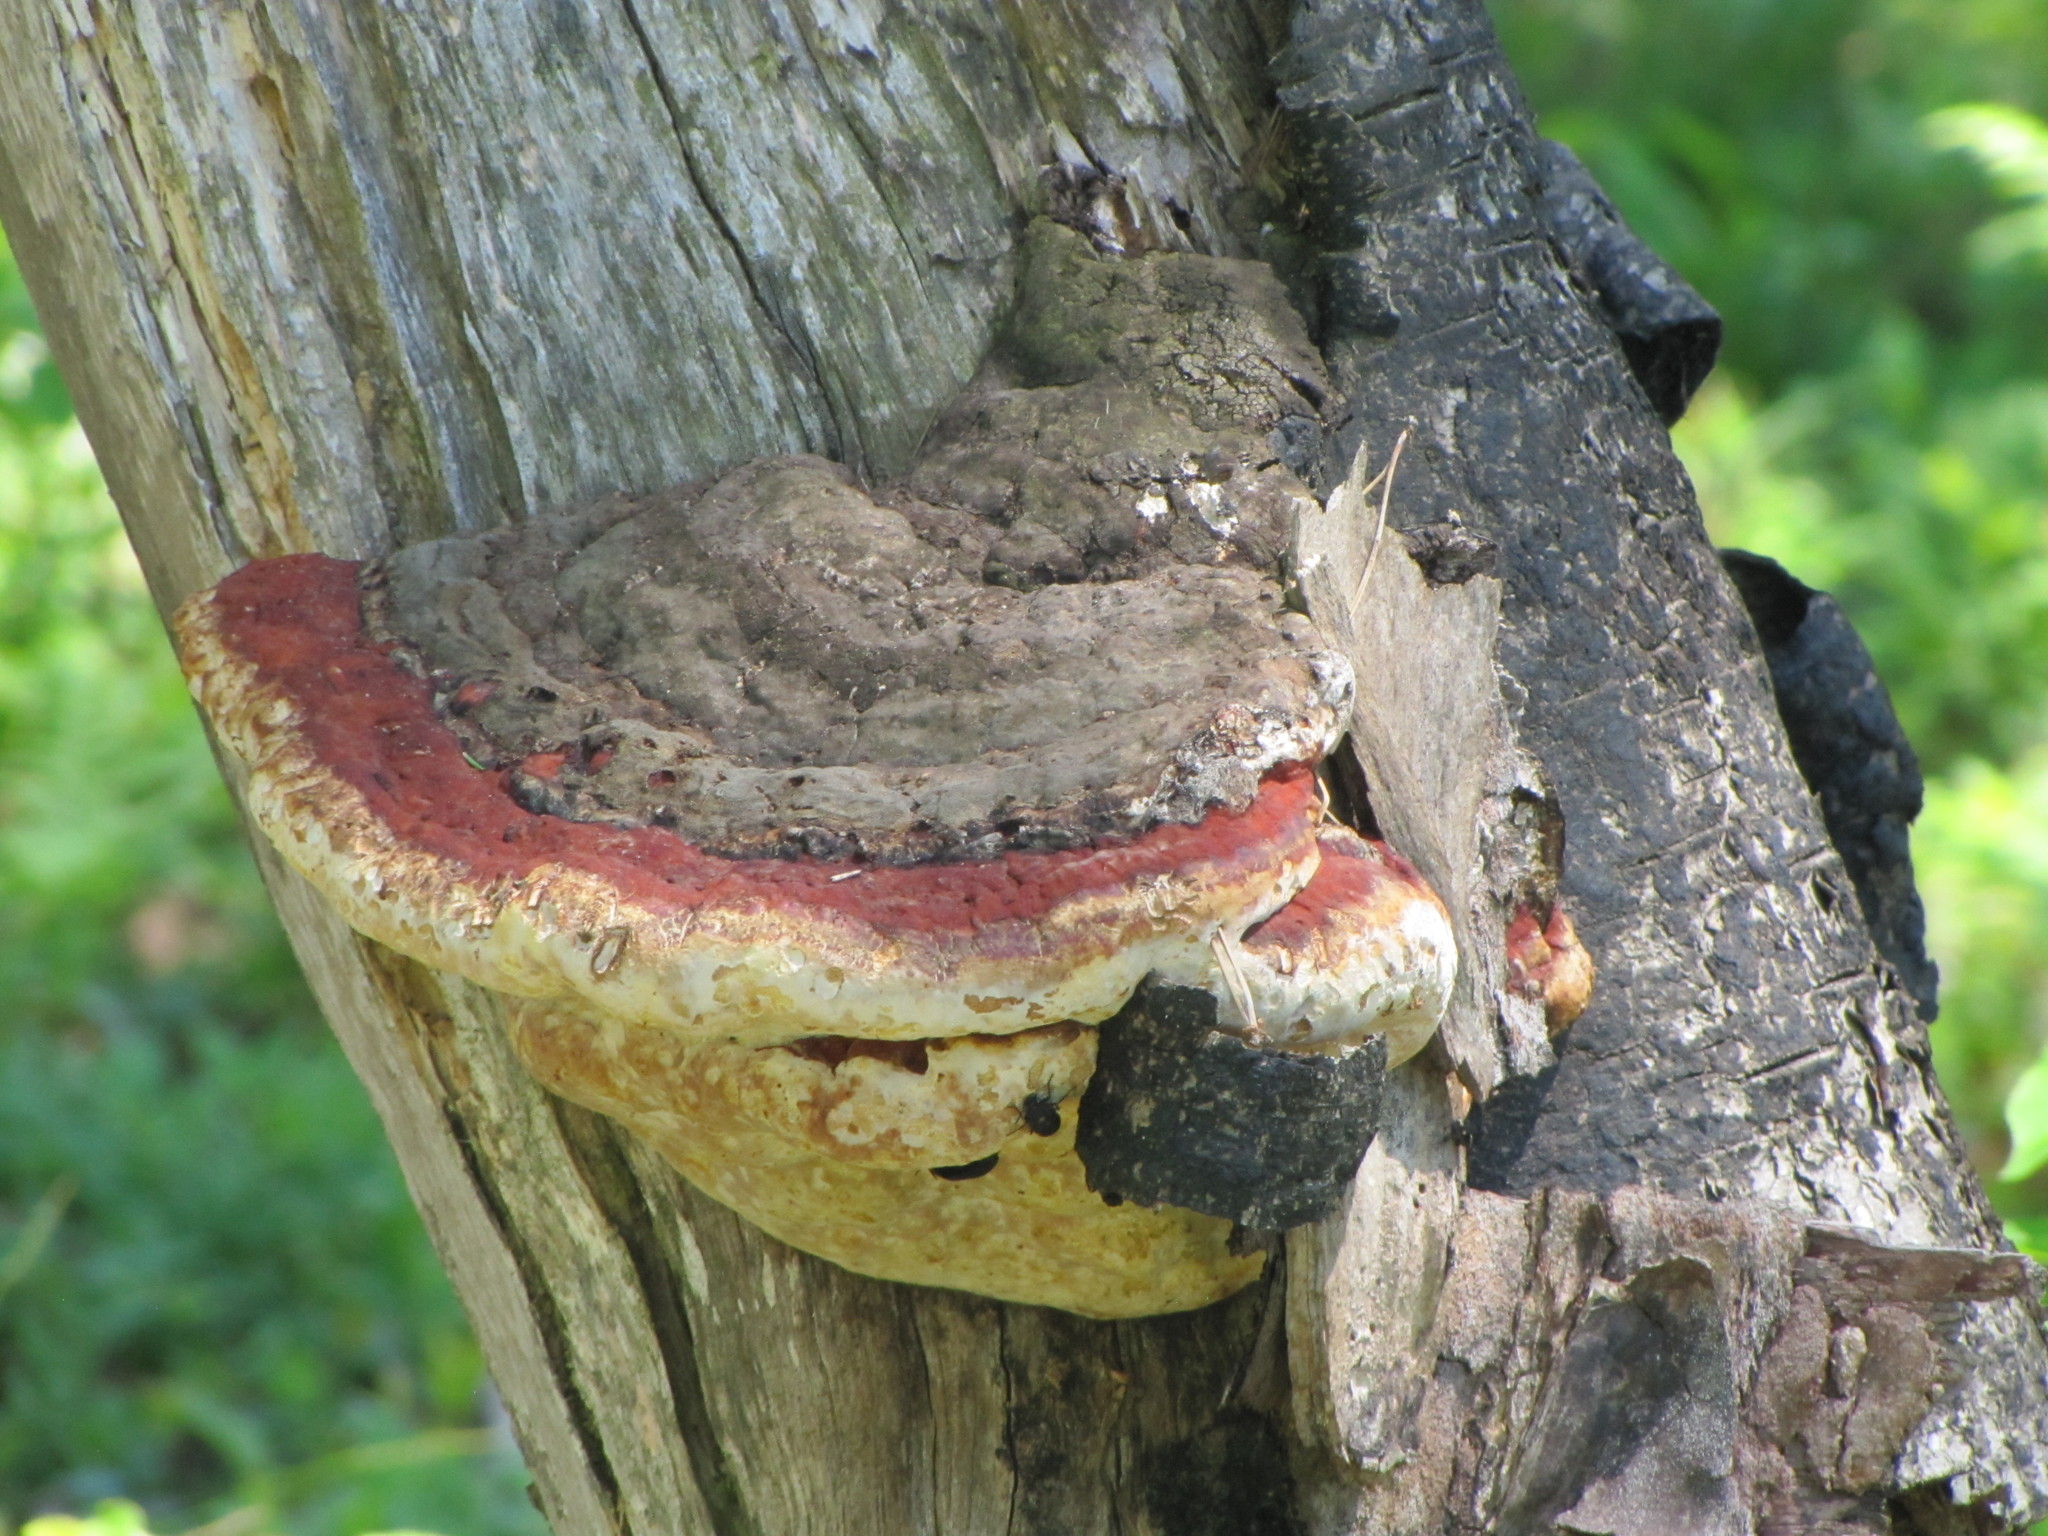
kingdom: Fungi
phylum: Basidiomycota
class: Agaricomycetes
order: Polyporales
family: Fomitopsidaceae
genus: Fomitopsis
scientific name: Fomitopsis mounceae
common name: Northern red belt
